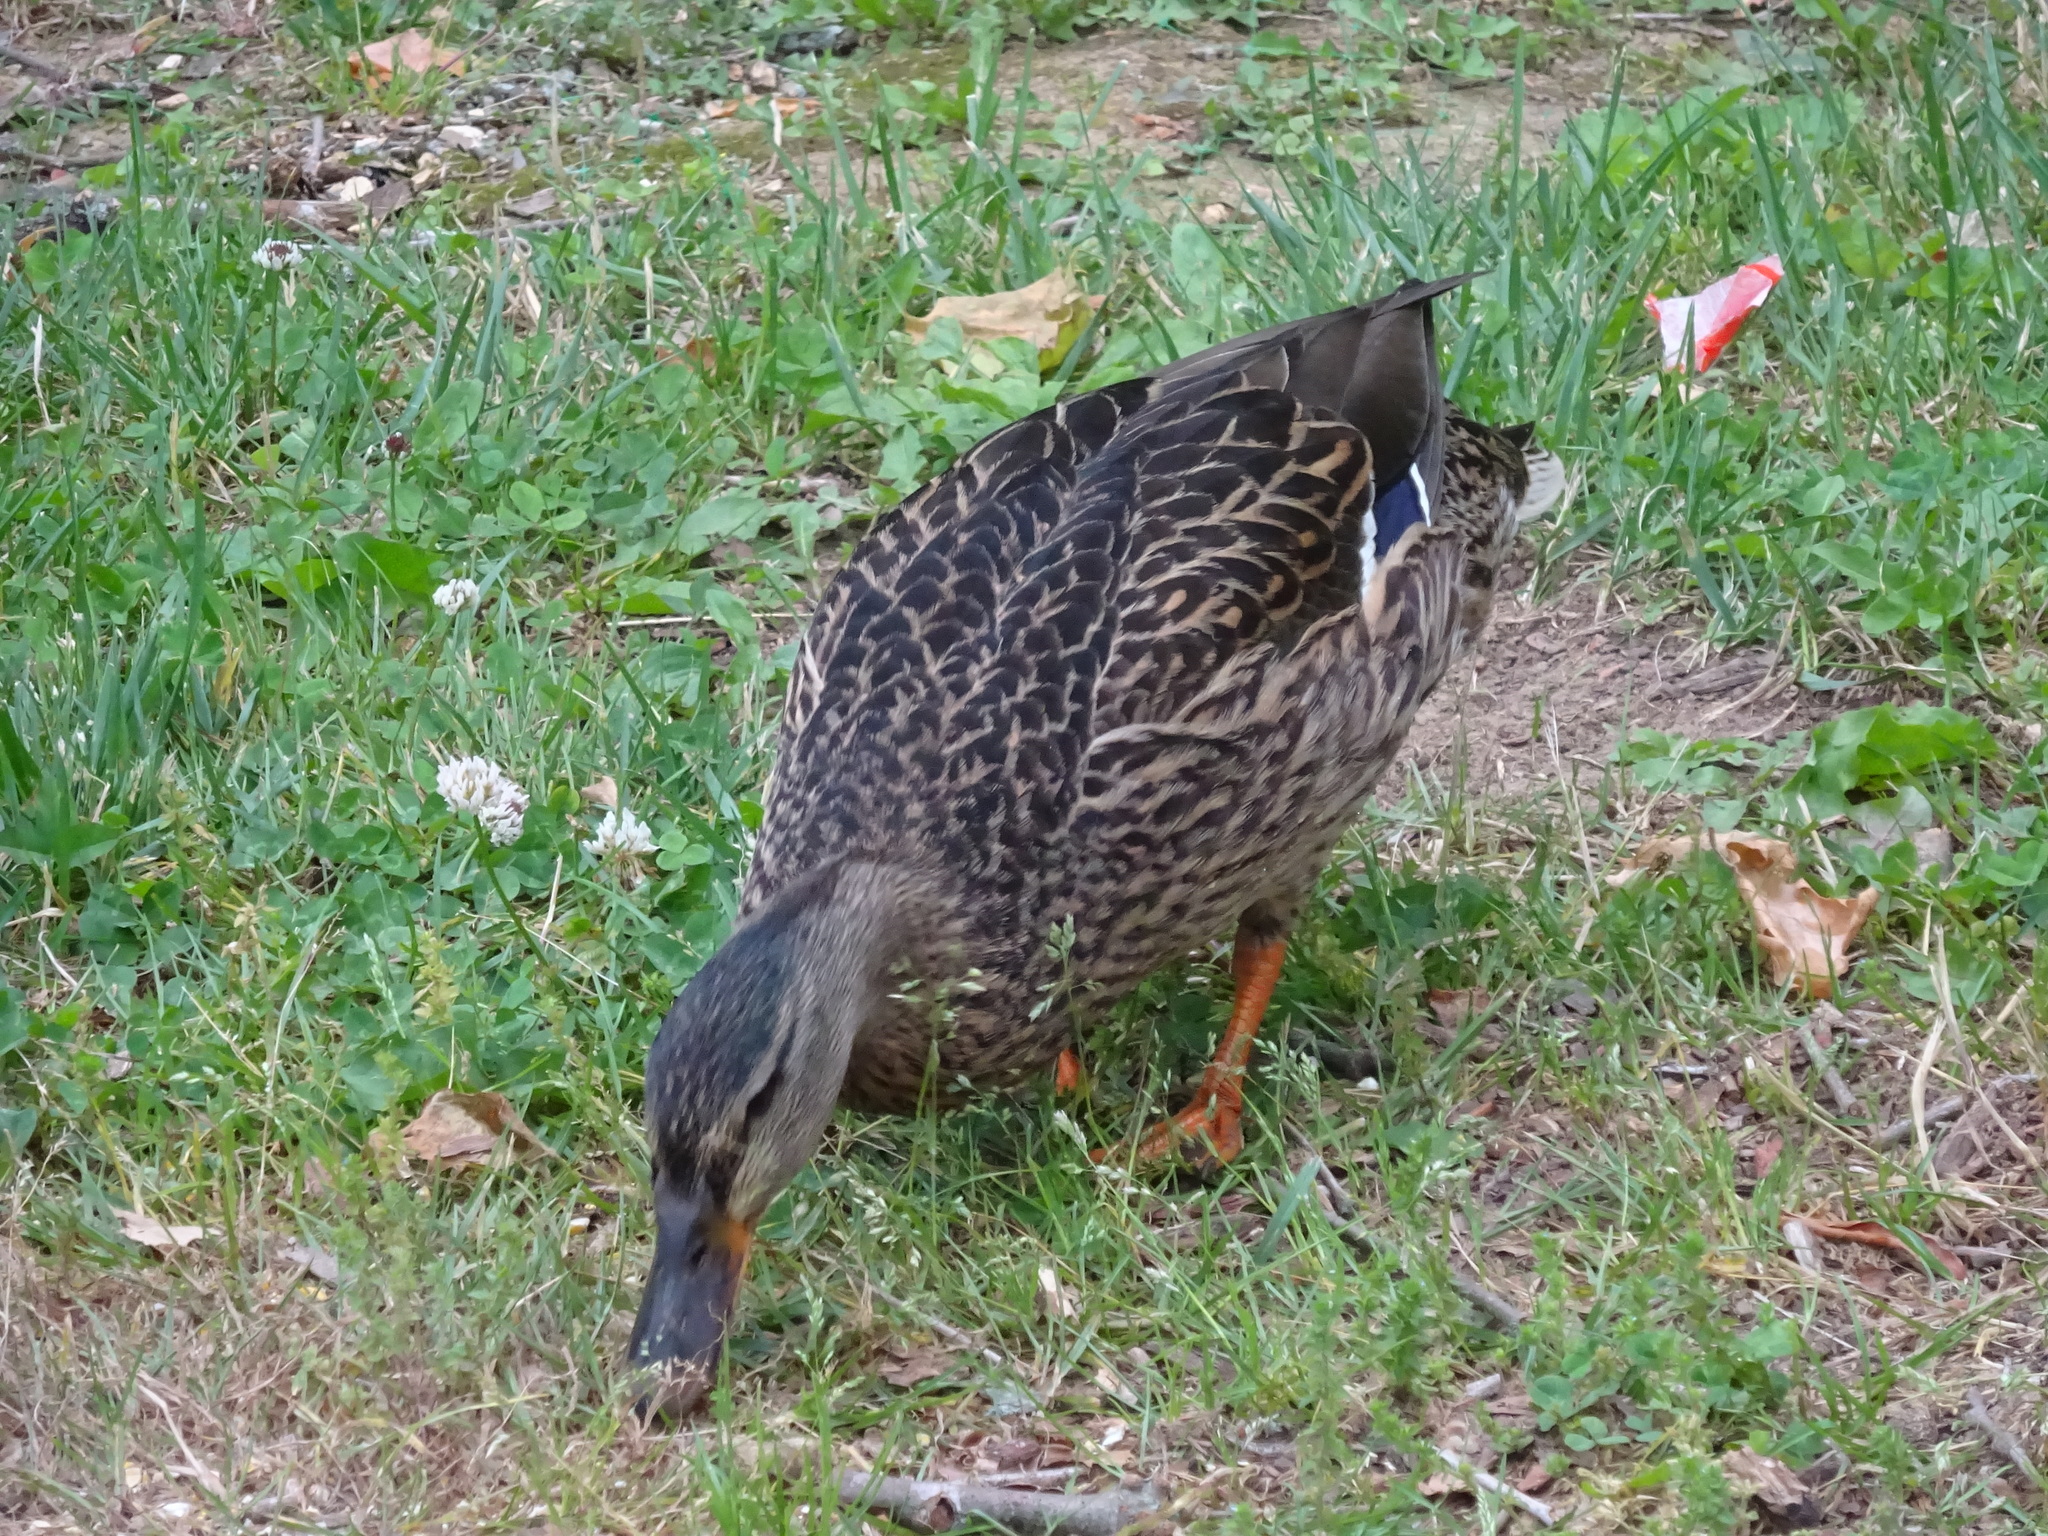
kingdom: Animalia
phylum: Chordata
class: Aves
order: Anseriformes
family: Anatidae
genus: Anas
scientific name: Anas platyrhynchos
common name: Mallard
